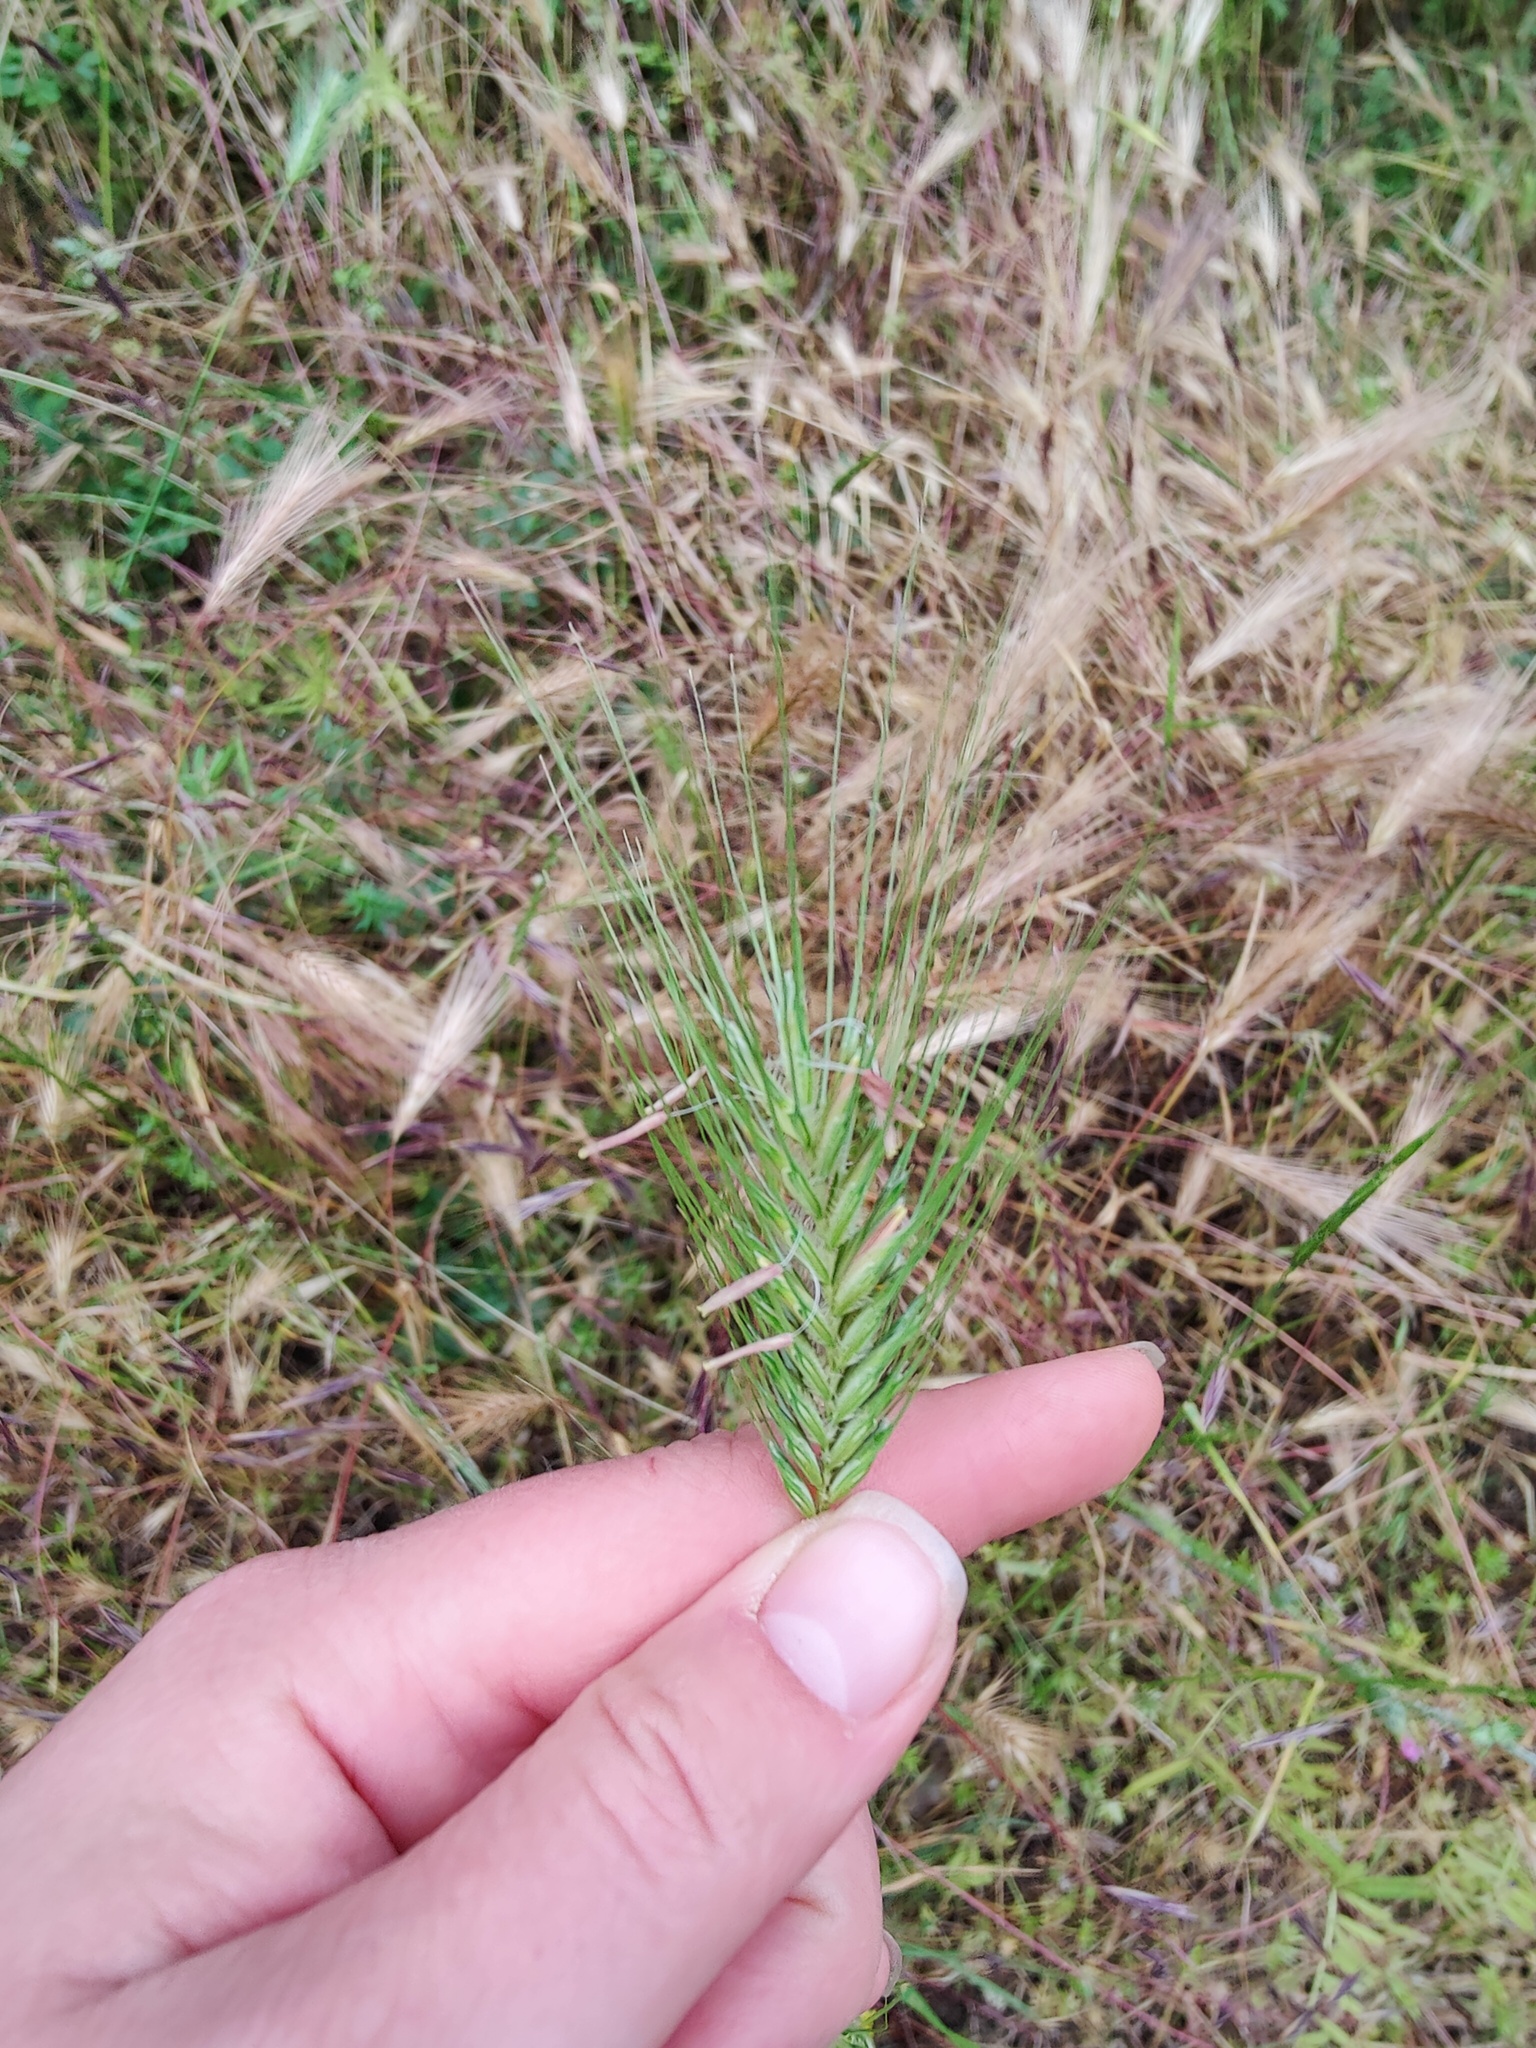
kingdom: Plantae
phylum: Tracheophyta
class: Liliopsida
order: Poales
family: Poaceae
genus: Dasypyrum
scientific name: Dasypyrum villosum
